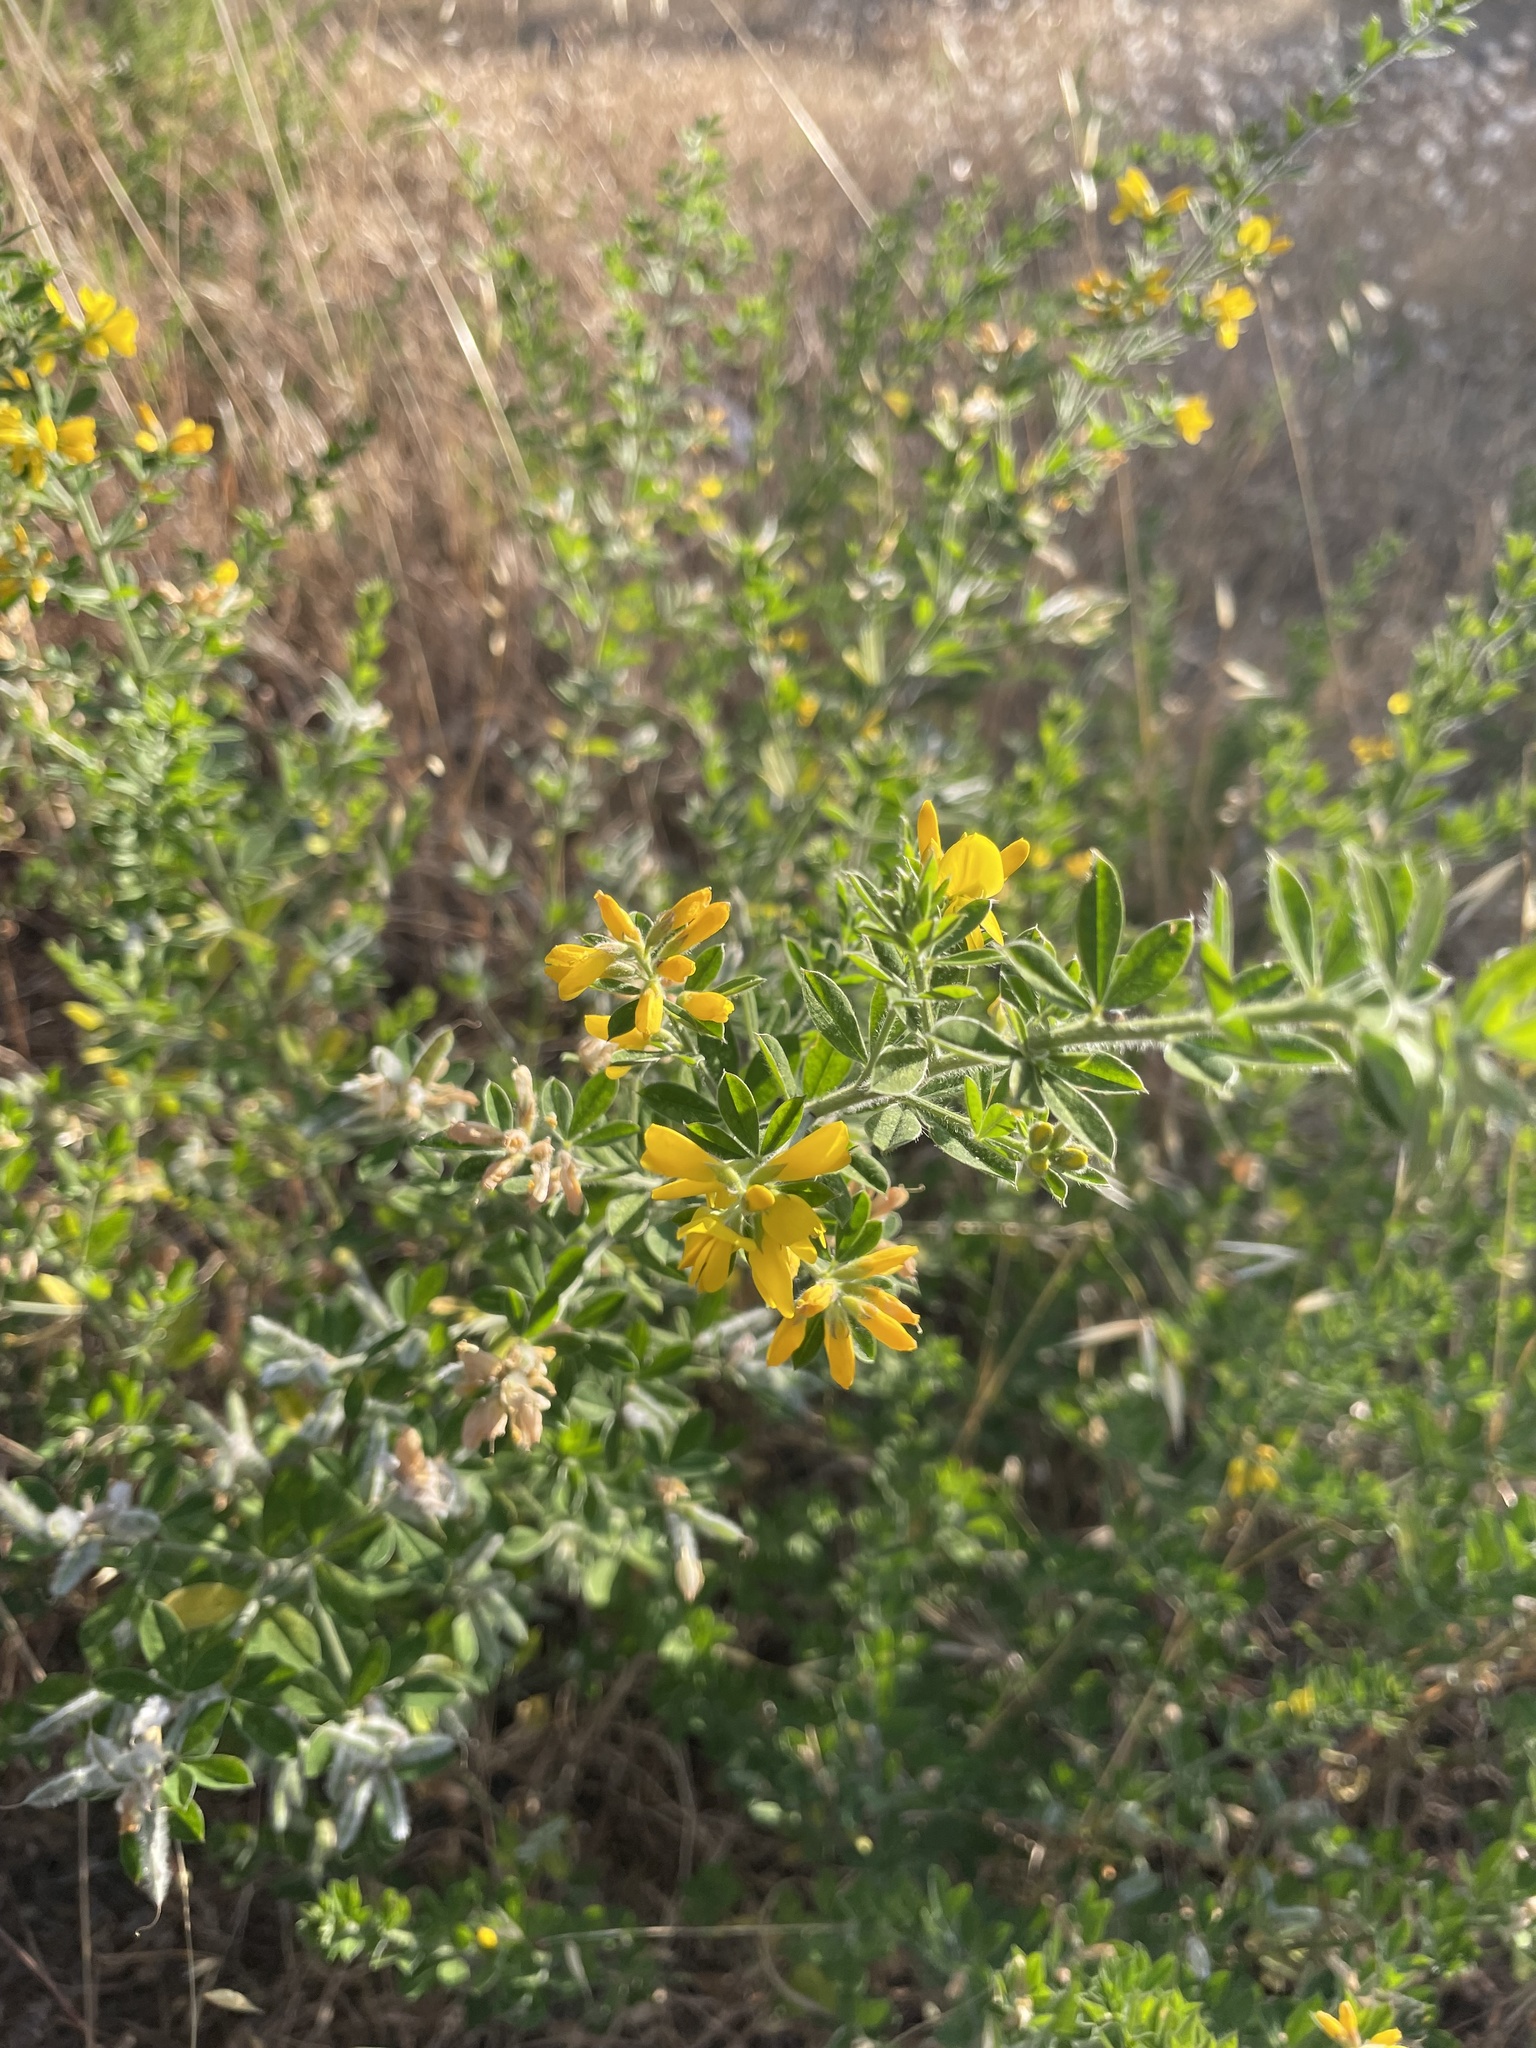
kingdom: Plantae
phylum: Tracheophyta
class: Magnoliopsida
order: Fabales
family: Fabaceae
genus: Genista
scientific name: Genista monspessulana
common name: Montpellier broom
